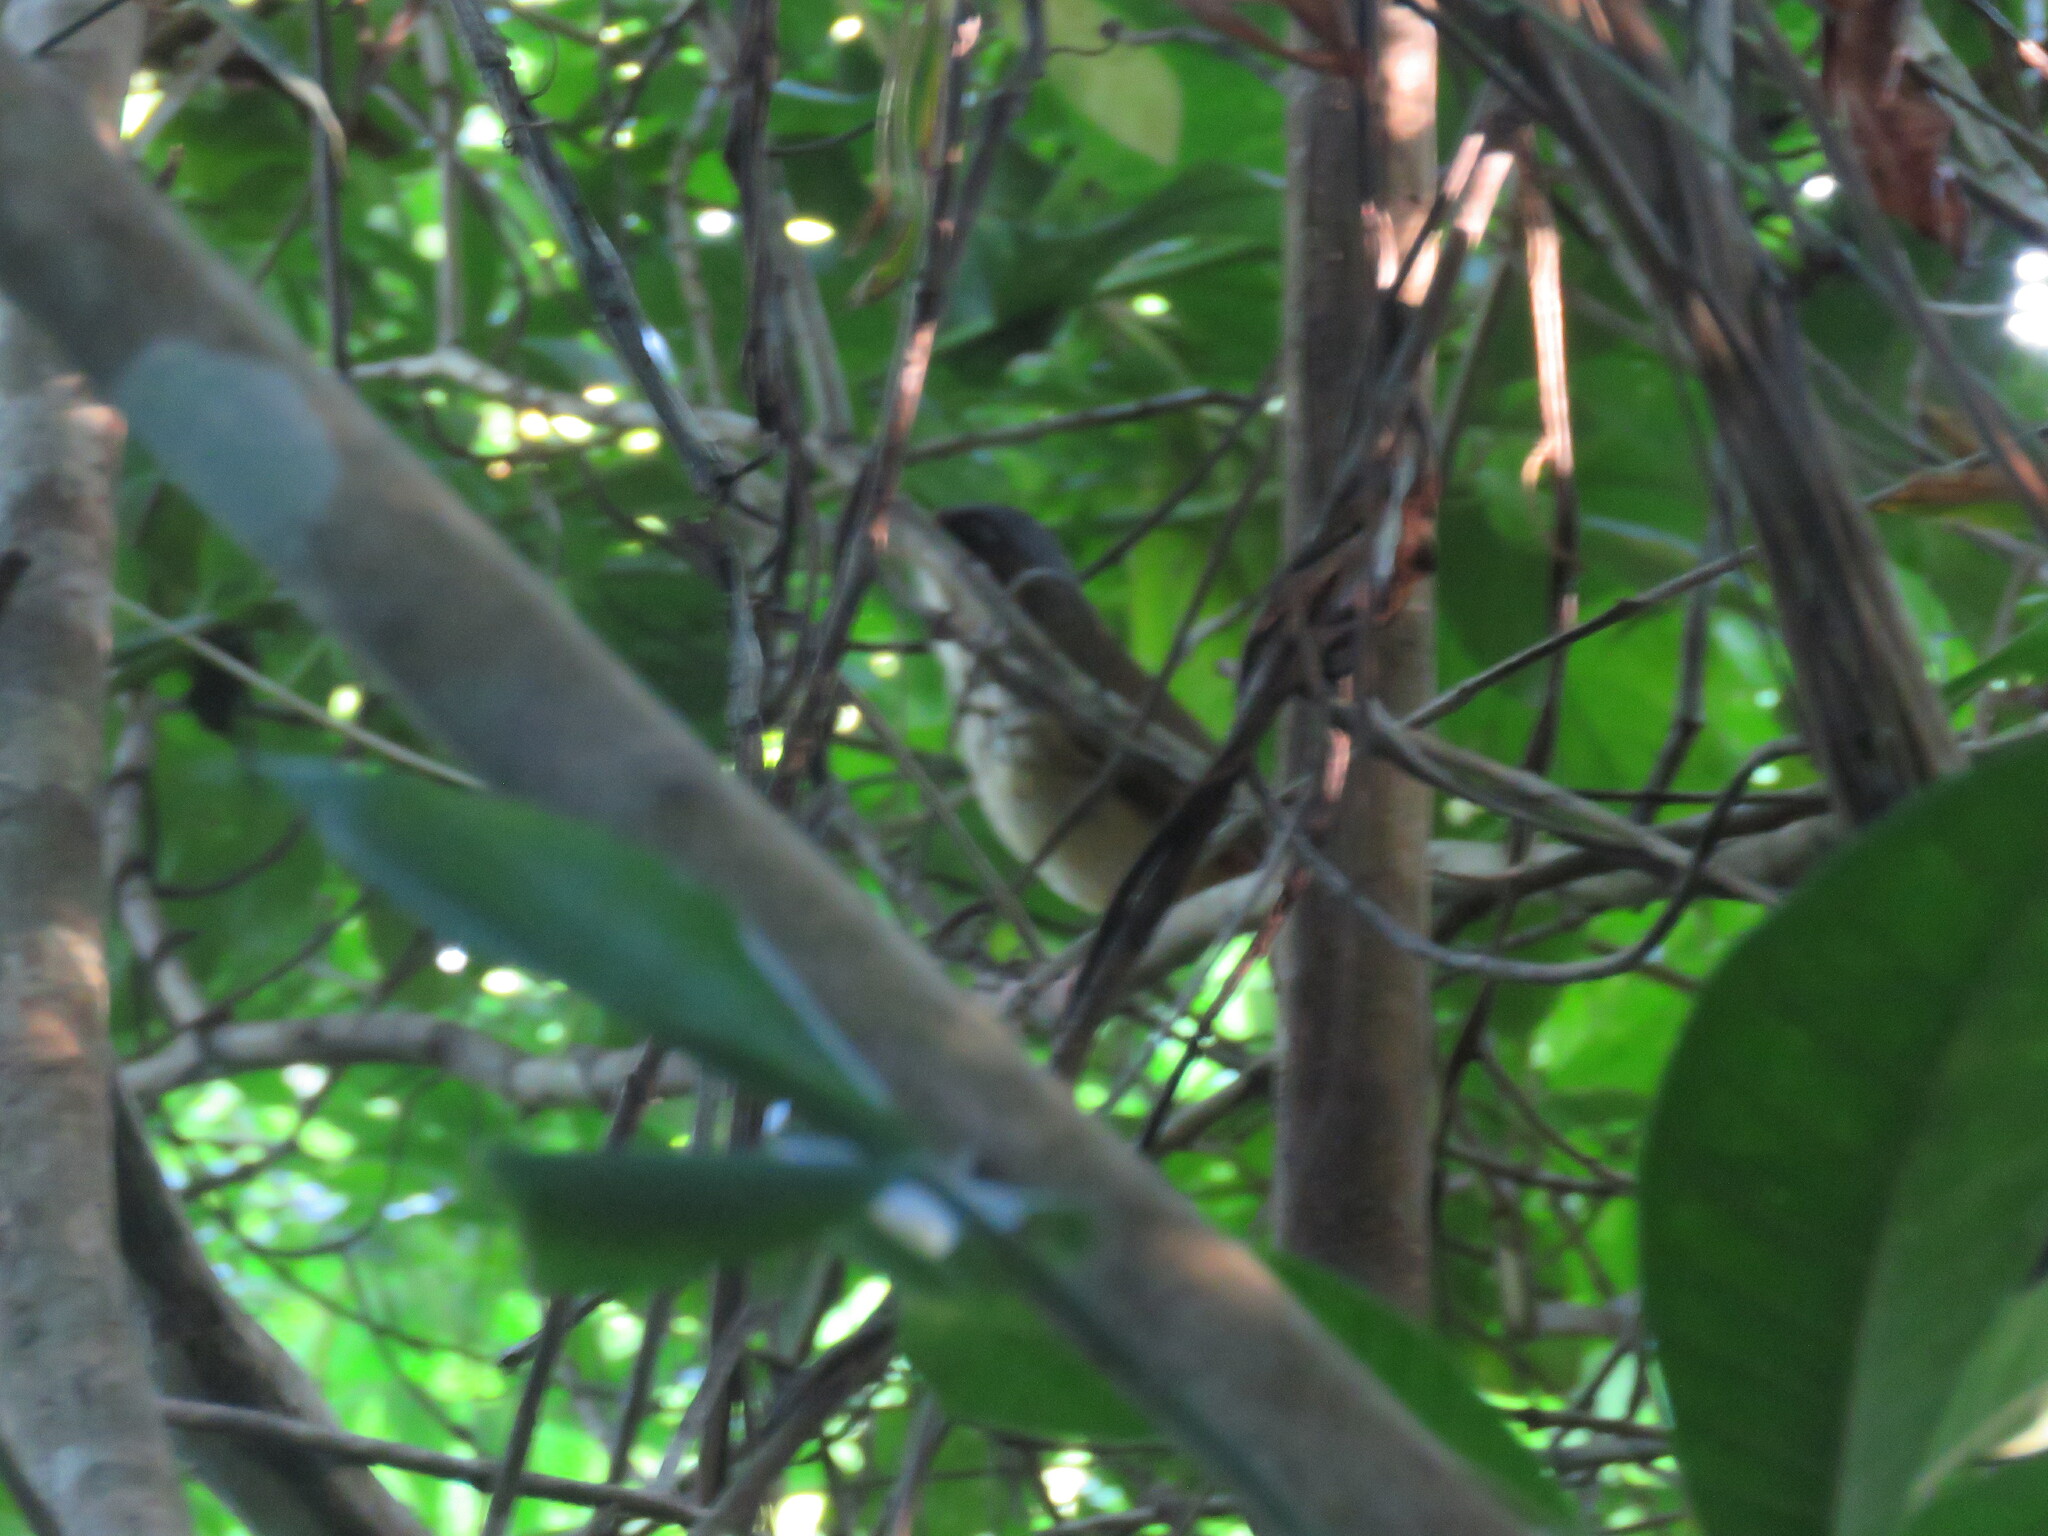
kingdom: Animalia
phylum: Chordata
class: Aves
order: Passeriformes
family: Grallariidae
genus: Hylopezus
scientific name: Hylopezus auricularis
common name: Masked antpitta
